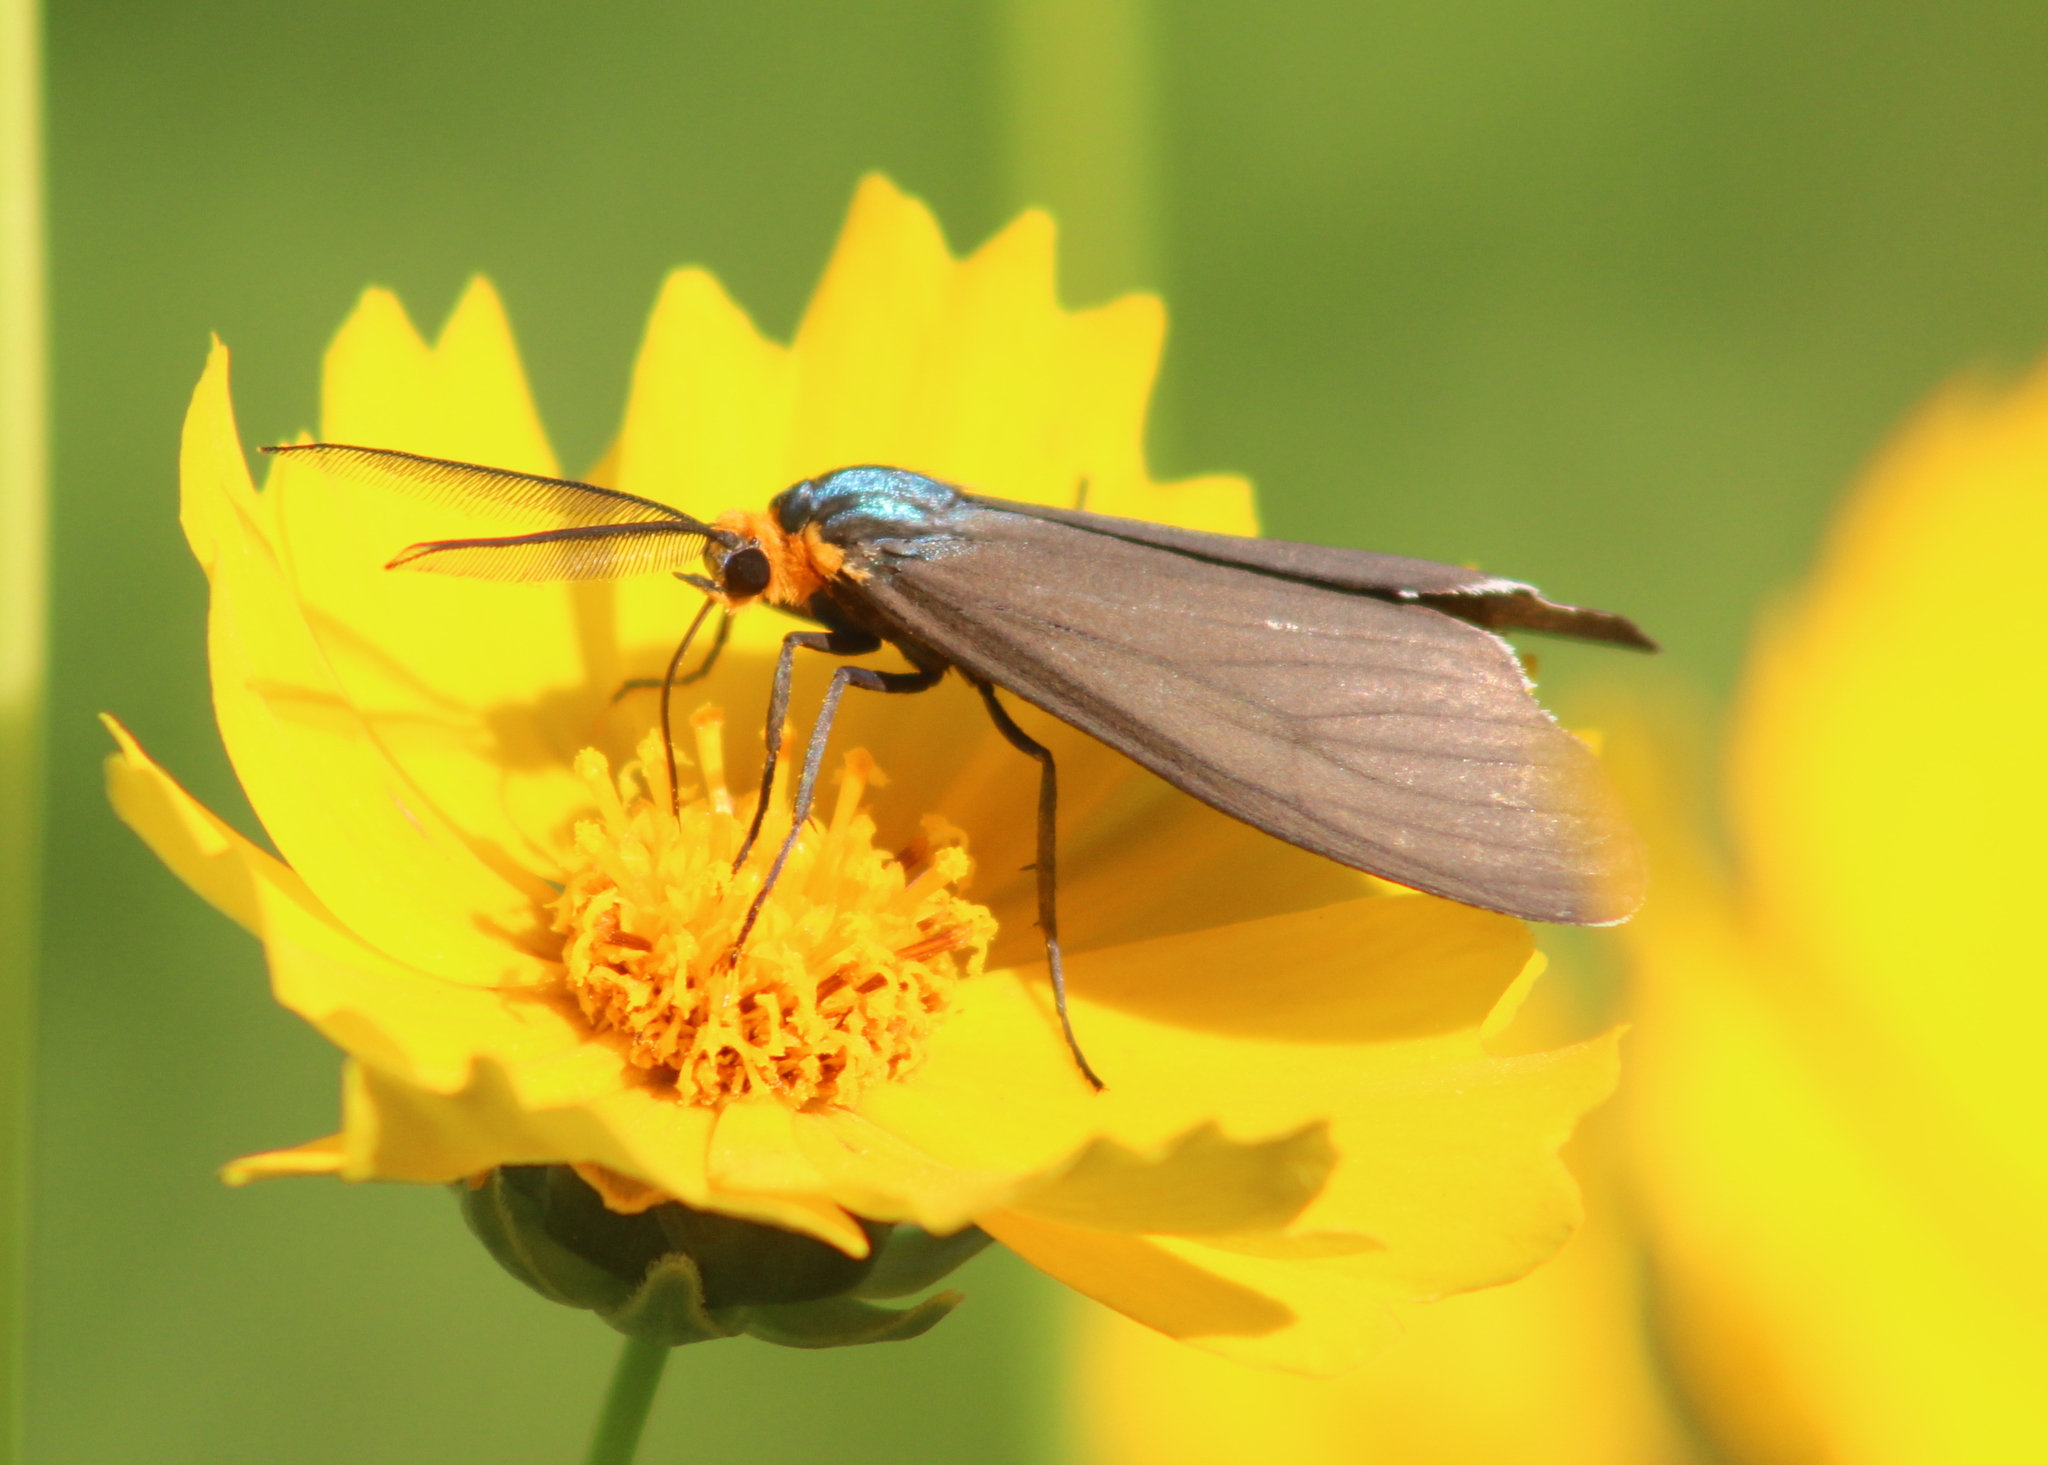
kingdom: Animalia
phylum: Arthropoda
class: Insecta
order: Lepidoptera
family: Erebidae
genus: Ctenucha
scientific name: Ctenucha virginica
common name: Virginia ctenucha moth
